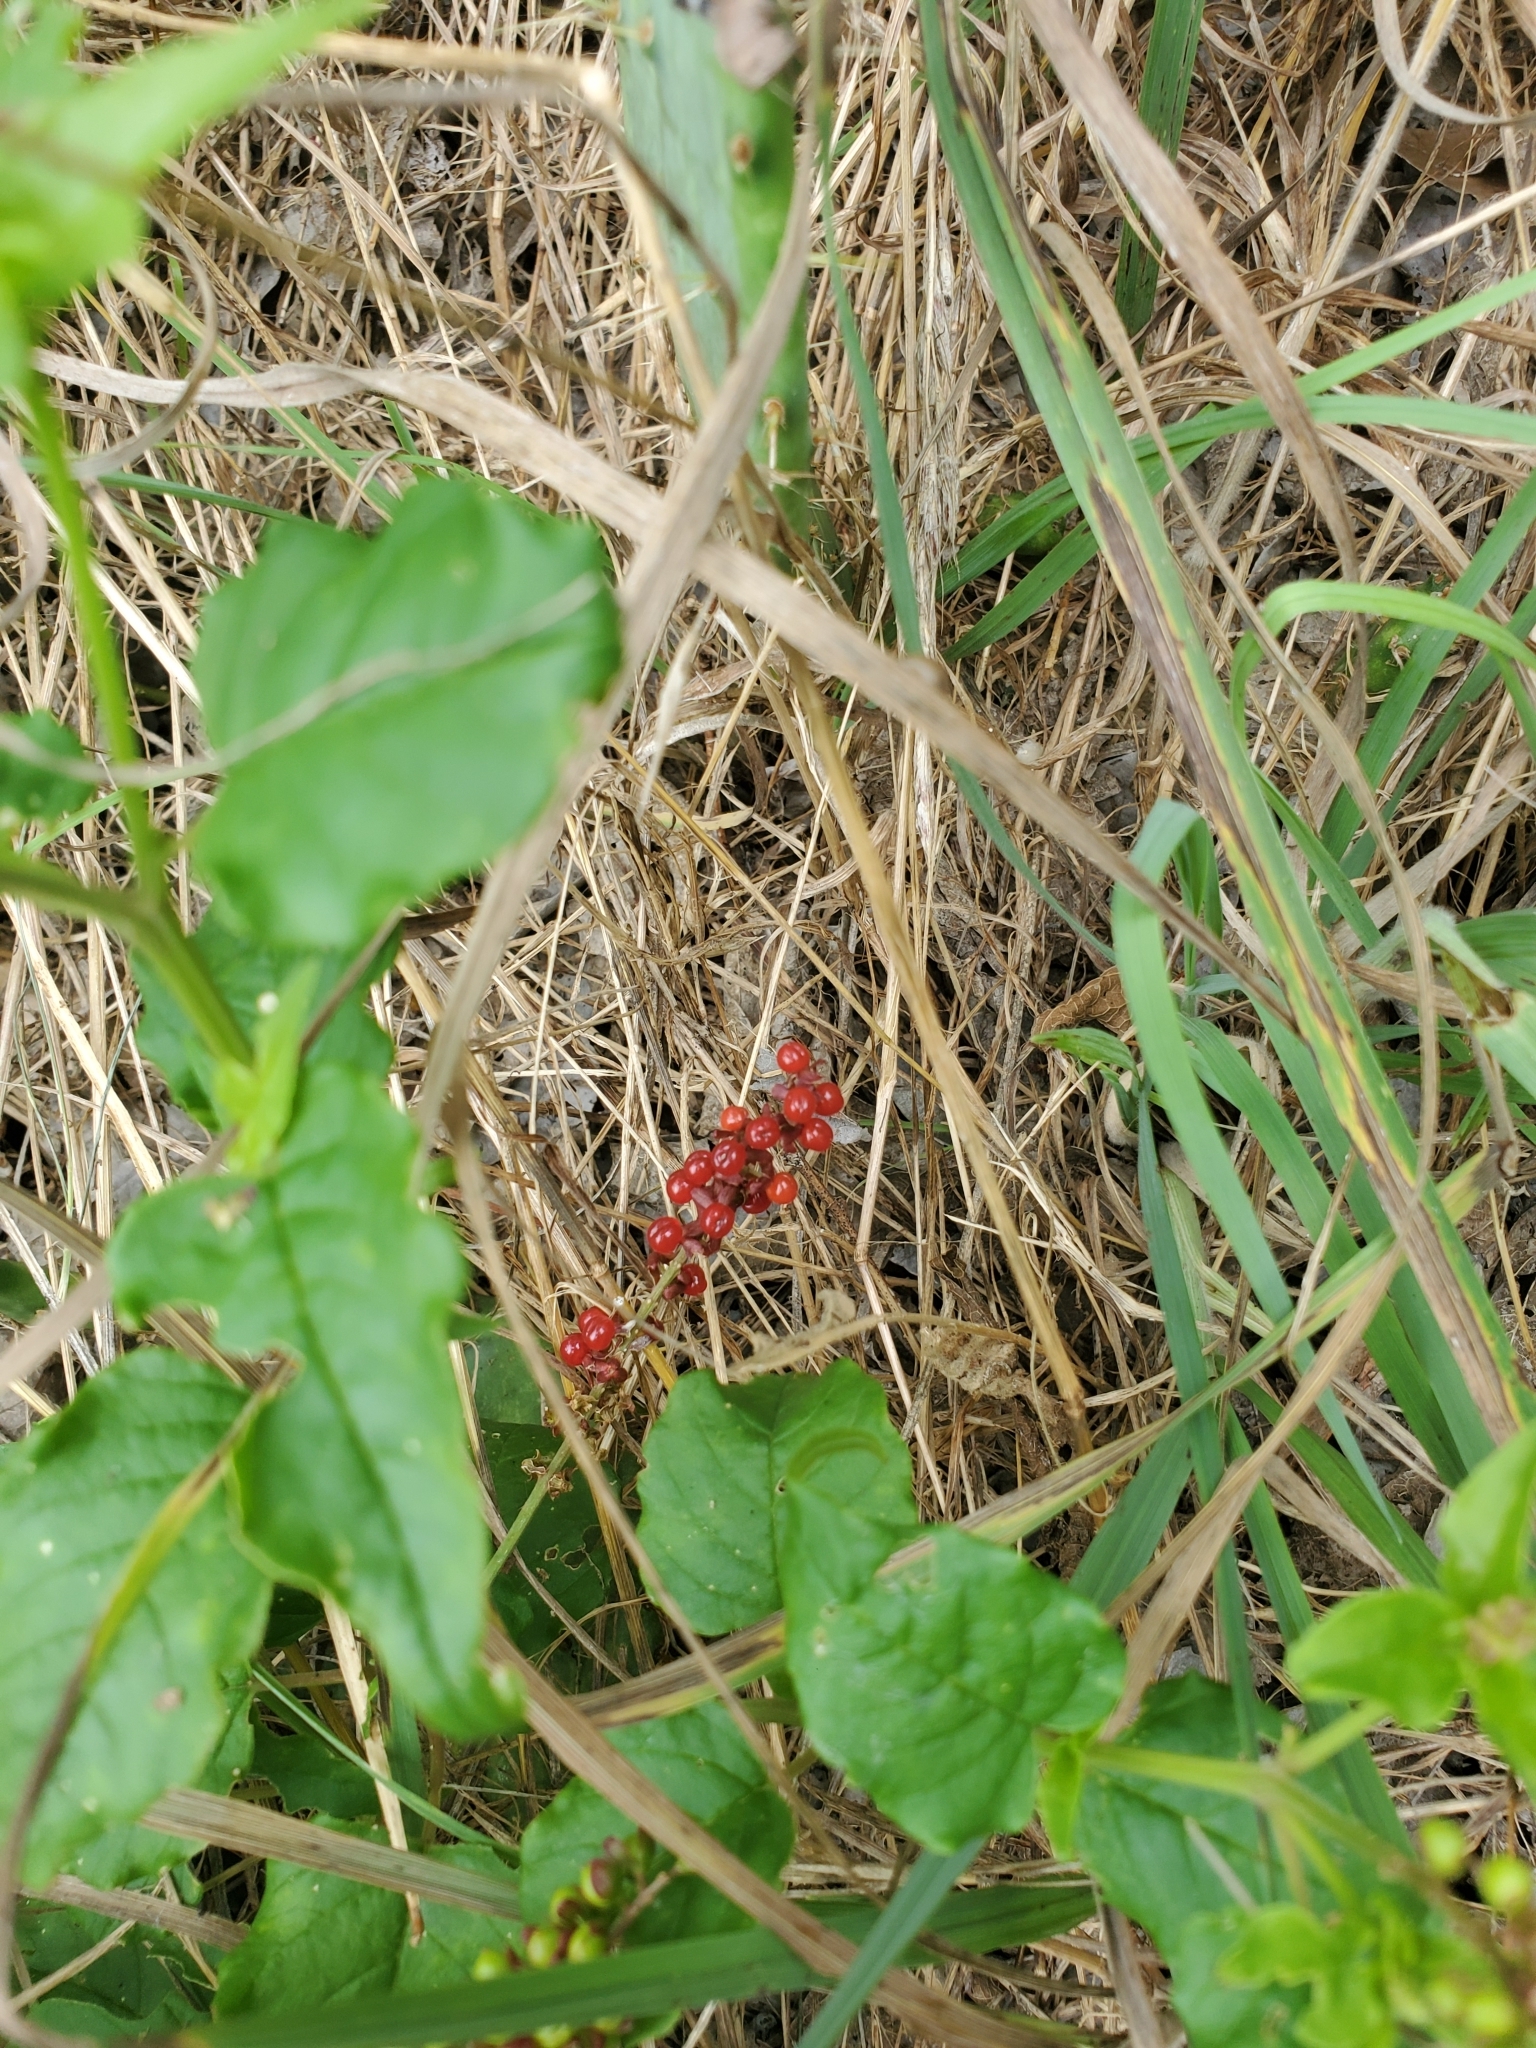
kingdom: Plantae
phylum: Tracheophyta
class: Magnoliopsida
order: Caryophyllales
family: Phytolaccaceae
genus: Rivina
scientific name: Rivina humilis
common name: Rougeplant
